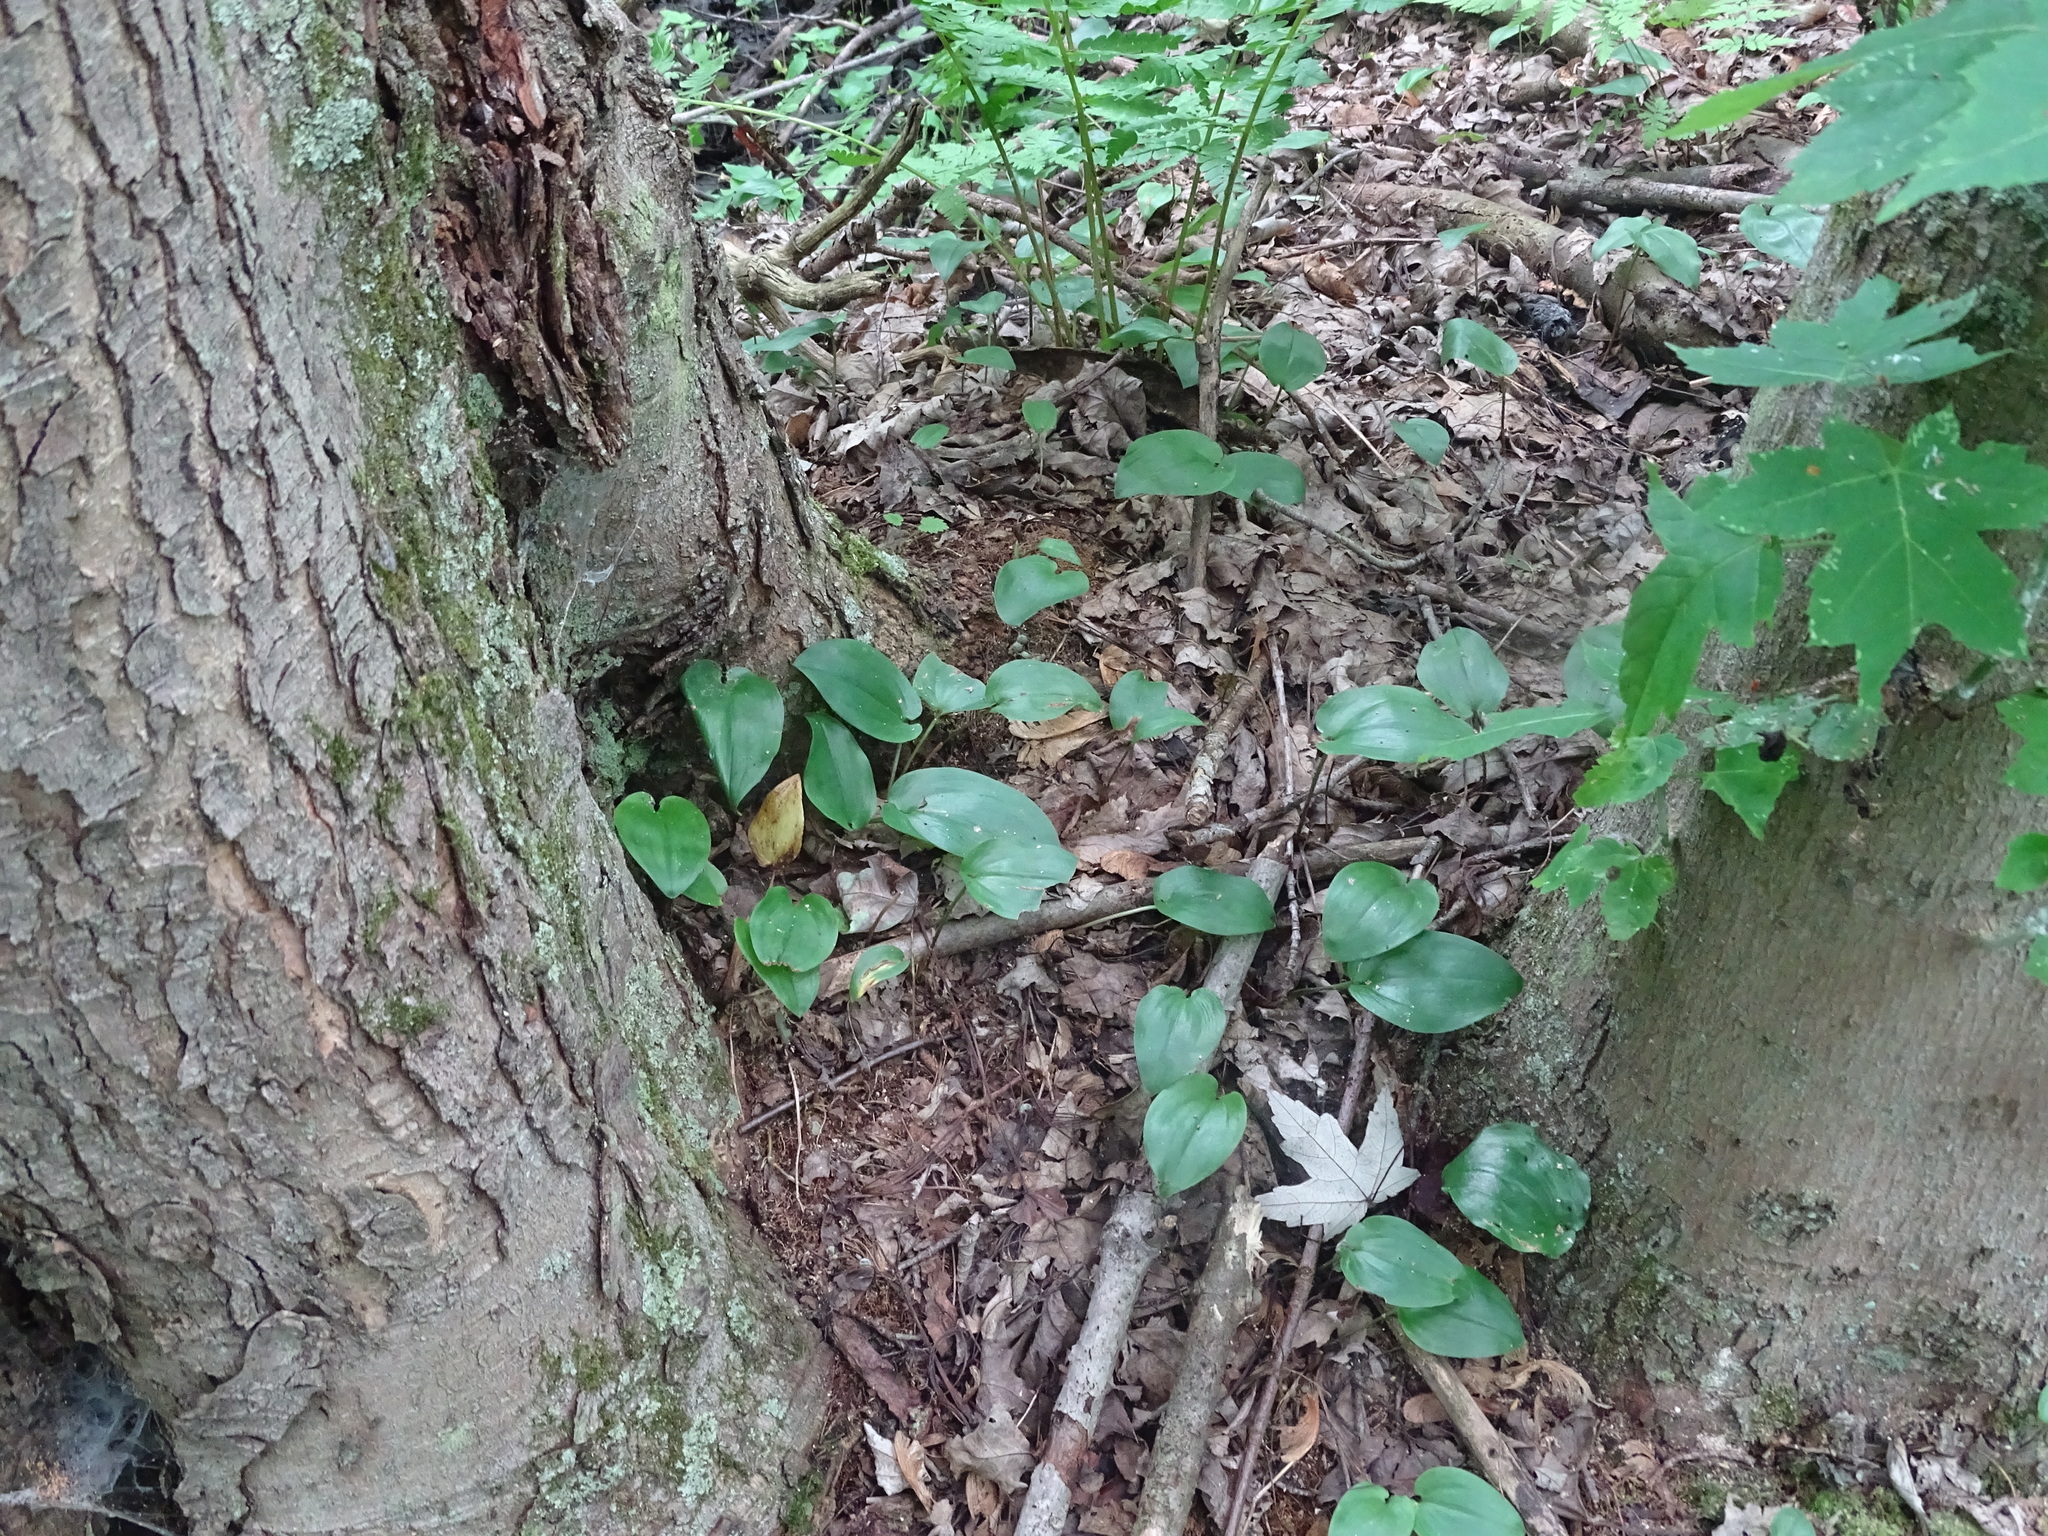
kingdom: Plantae
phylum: Tracheophyta
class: Liliopsida
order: Asparagales
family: Asparagaceae
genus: Maianthemum
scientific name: Maianthemum canadense
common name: False lily-of-the-valley
